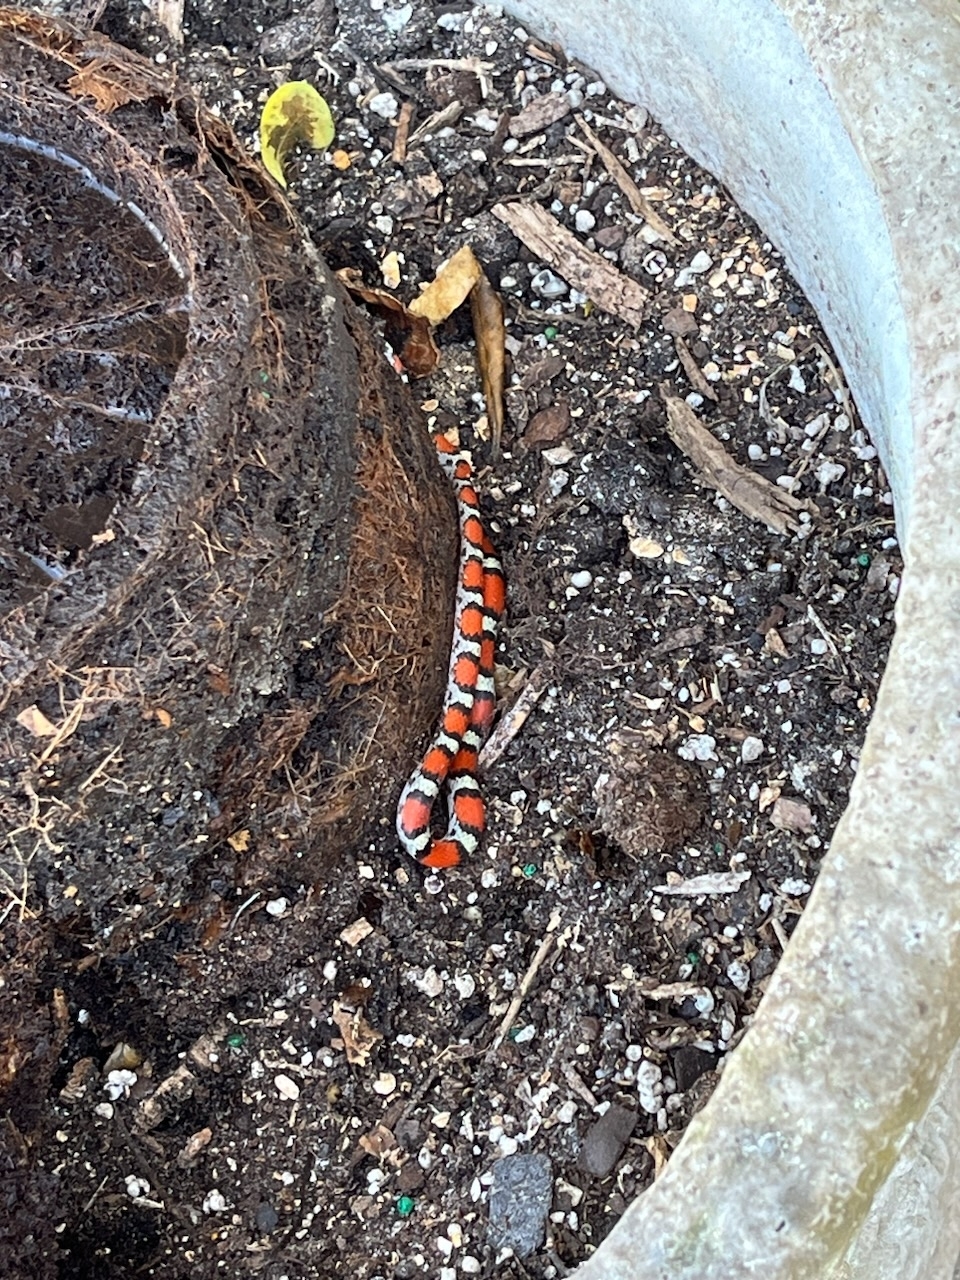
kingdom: Animalia
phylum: Chordata
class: Squamata
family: Colubridae
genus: Cemophora
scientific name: Cemophora coccinea
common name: Scarlet snake
